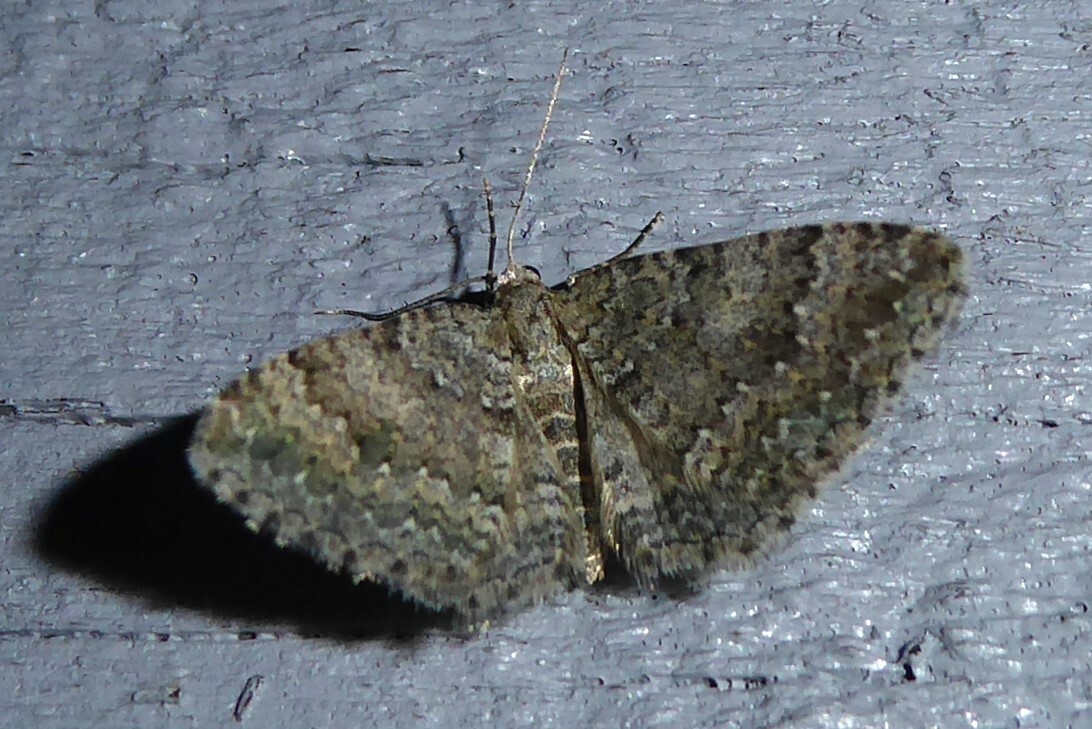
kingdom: Animalia
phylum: Arthropoda
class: Insecta
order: Lepidoptera
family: Geometridae
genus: Helastia
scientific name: Helastia corcularia
